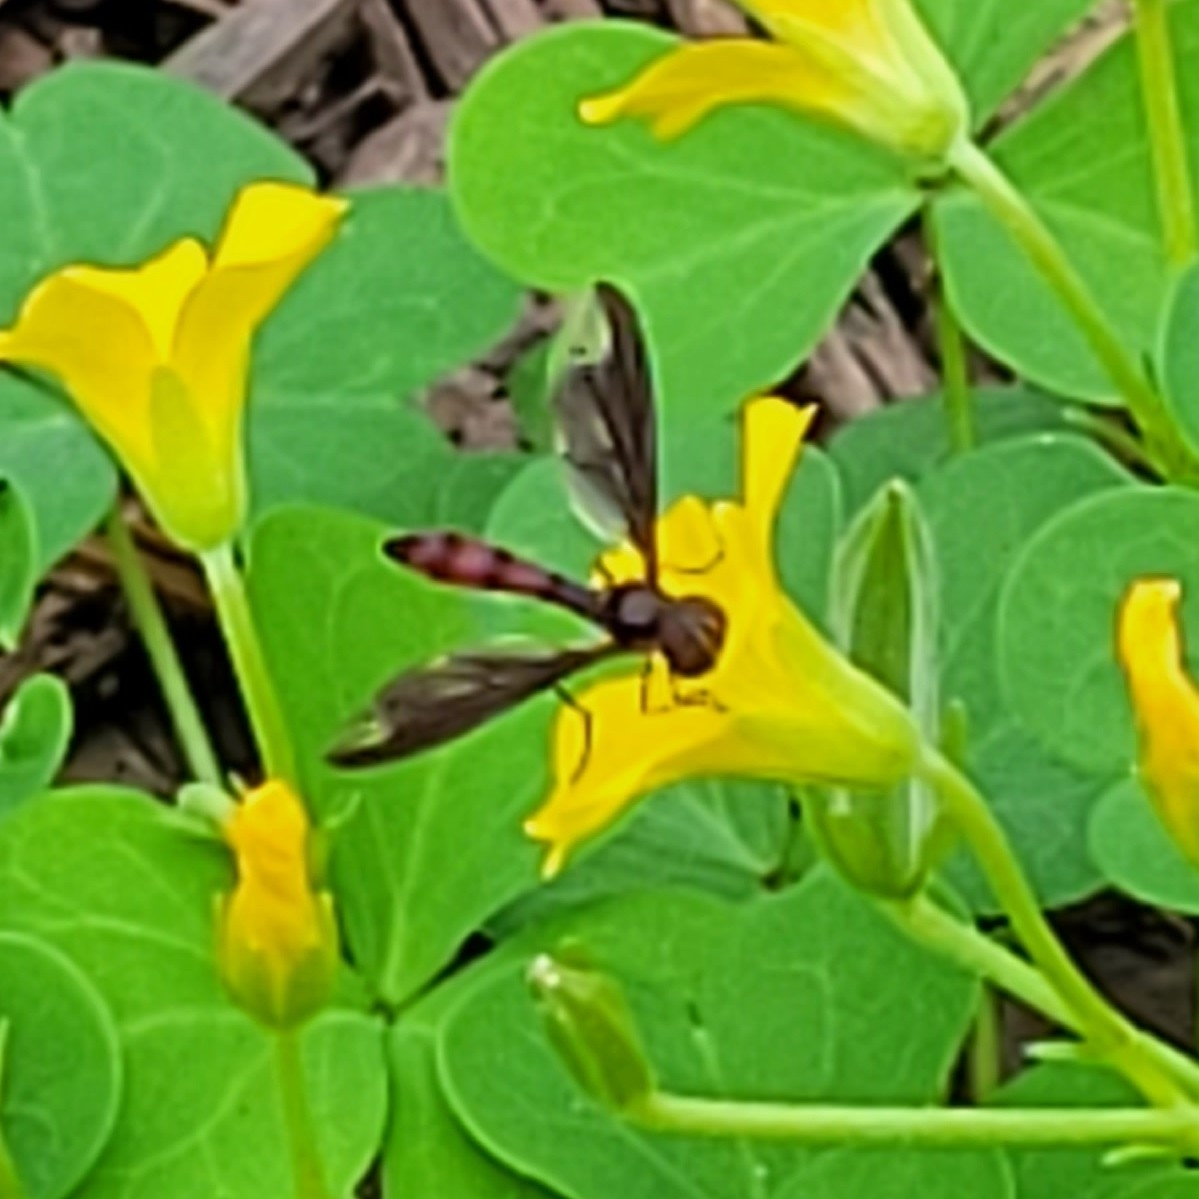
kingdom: Animalia
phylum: Arthropoda
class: Insecta
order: Diptera
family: Syrphidae
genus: Ocyptamus
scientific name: Ocyptamus fuscipennis
